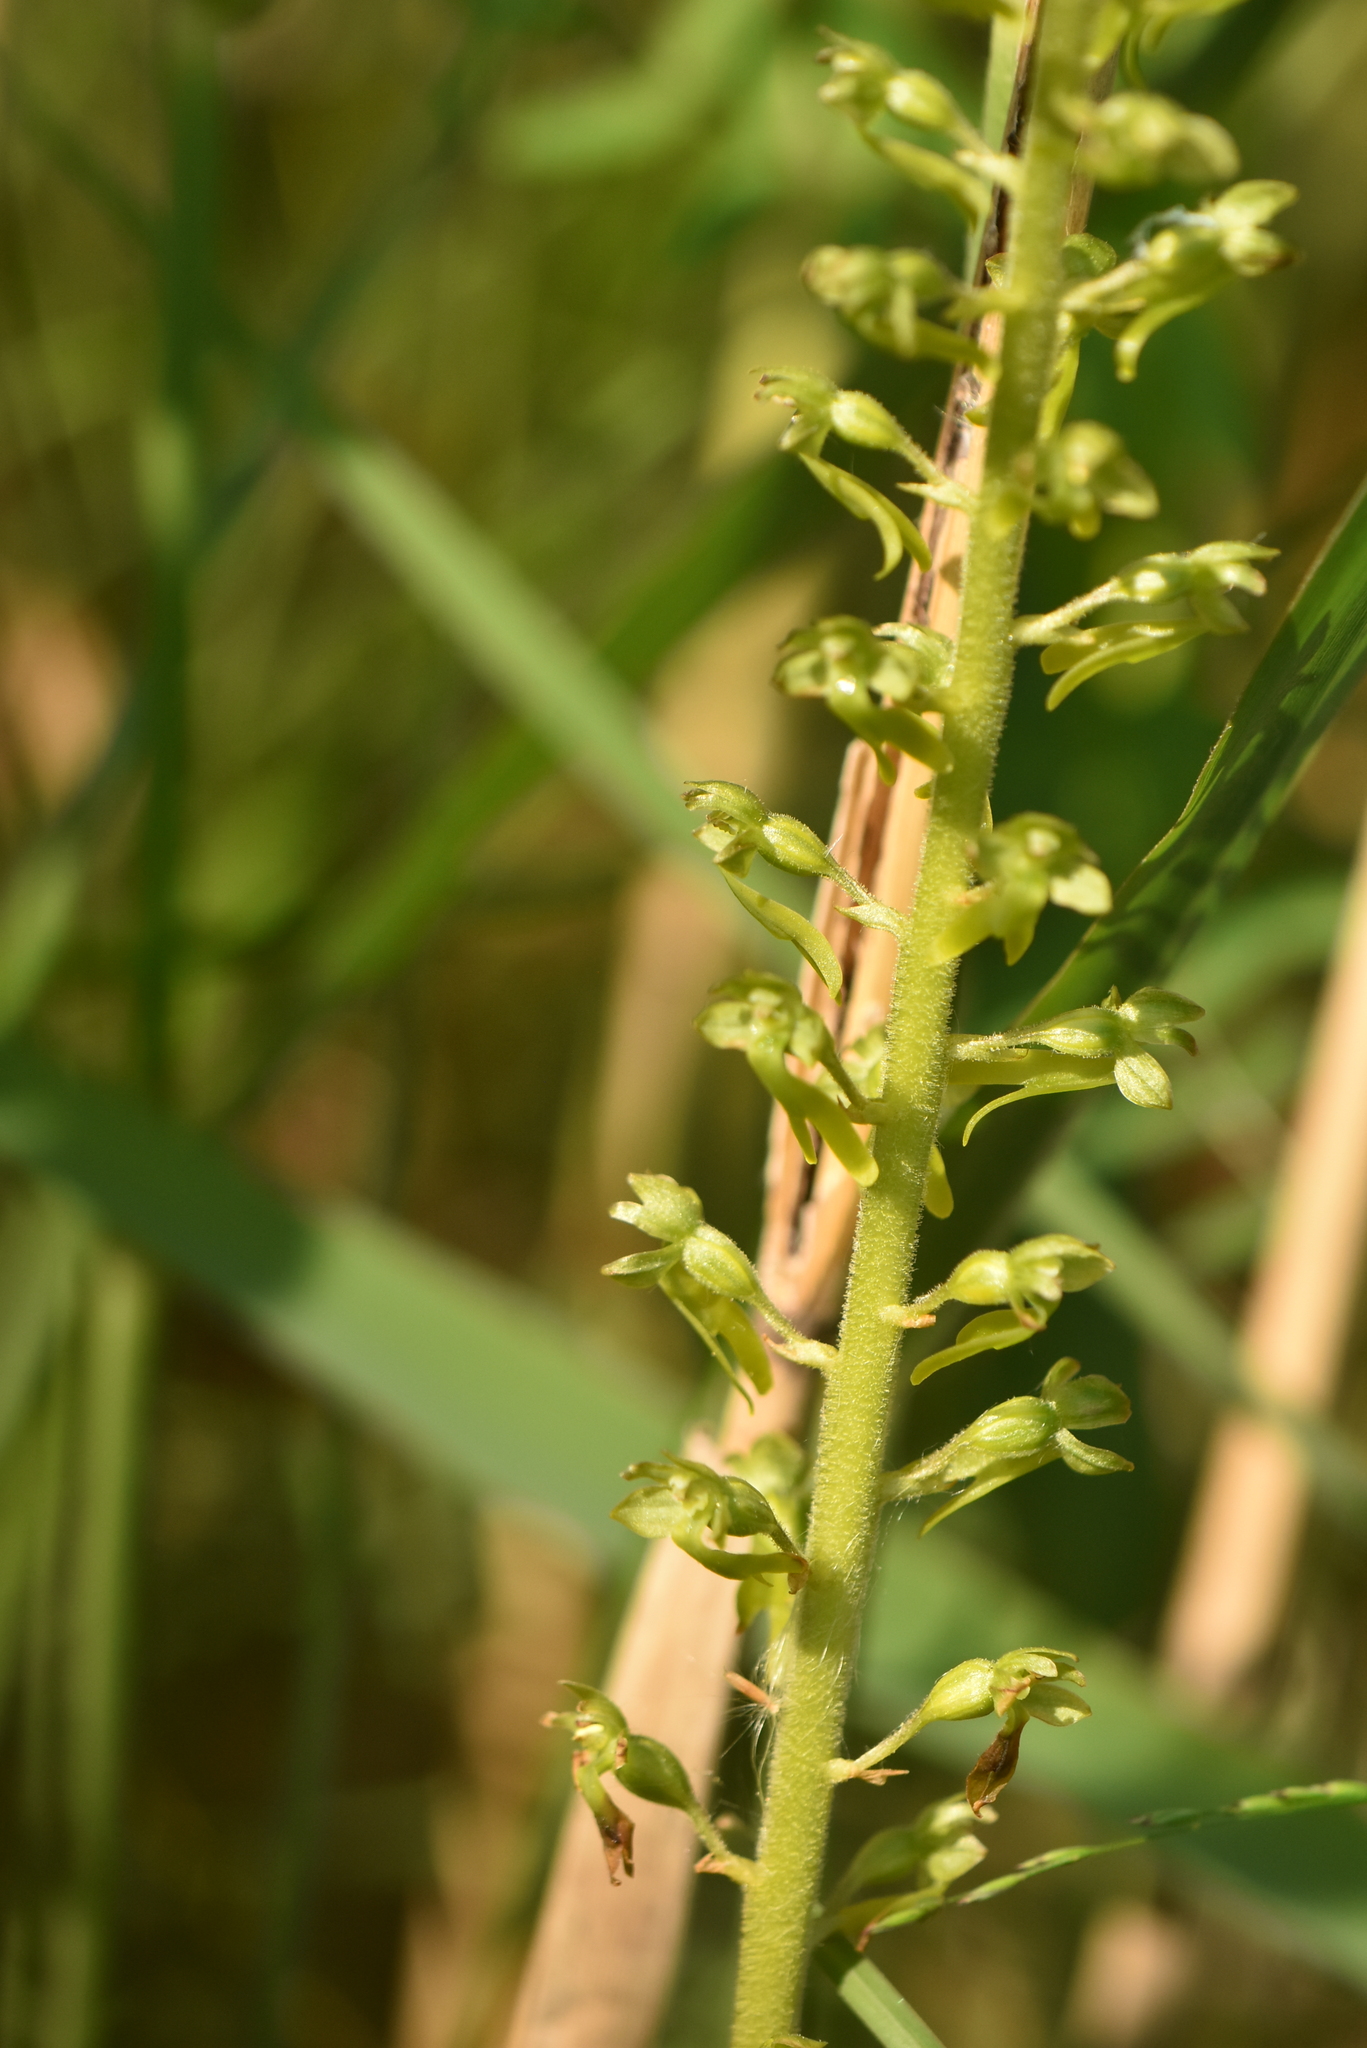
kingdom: Plantae
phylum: Tracheophyta
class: Liliopsida
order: Asparagales
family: Orchidaceae
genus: Neottia
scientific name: Neottia ovata
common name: Common twayblade
